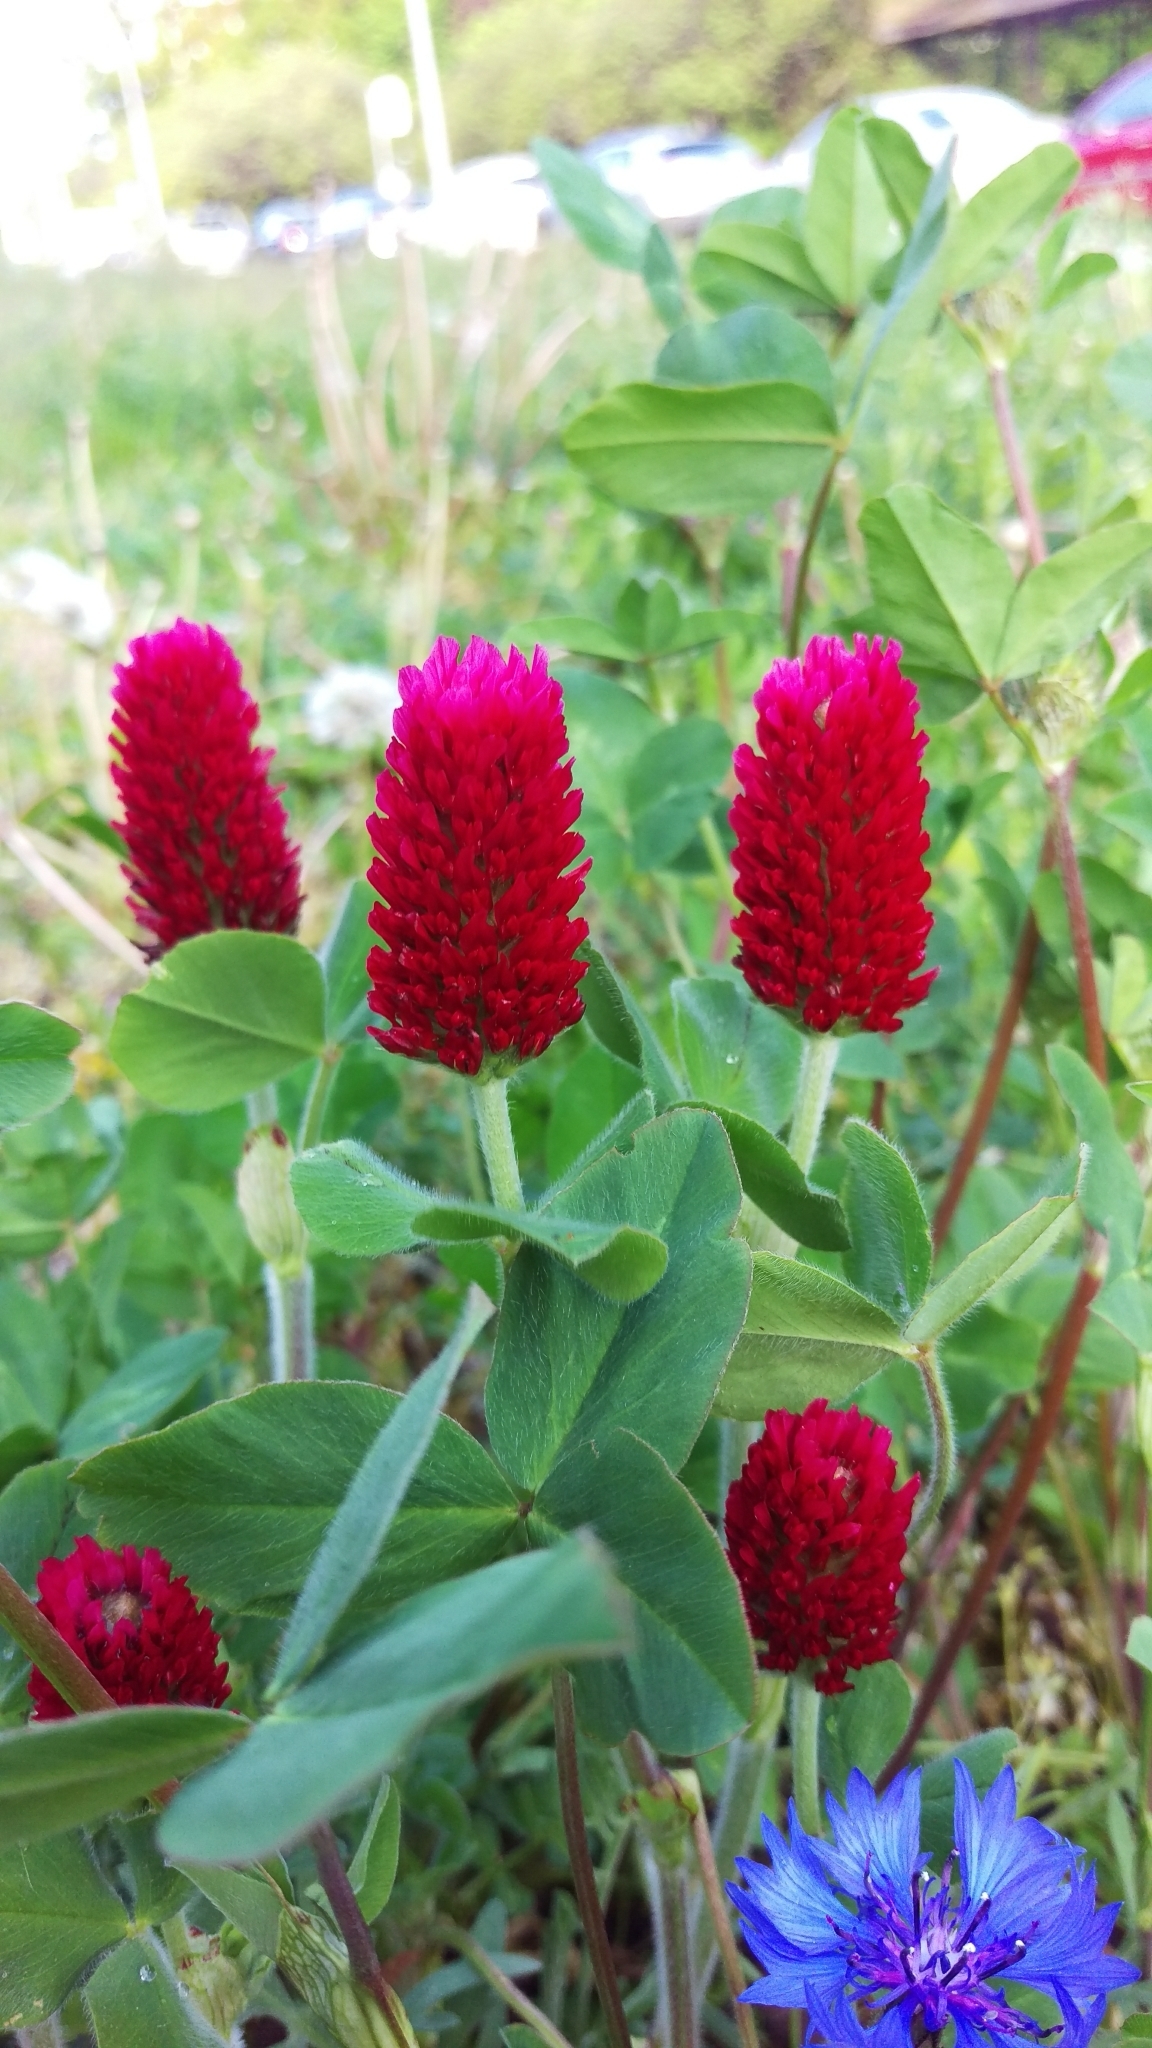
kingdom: Plantae
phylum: Tracheophyta
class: Magnoliopsida
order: Fabales
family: Fabaceae
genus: Trifolium
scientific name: Trifolium incarnatum
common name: Crimson clover
